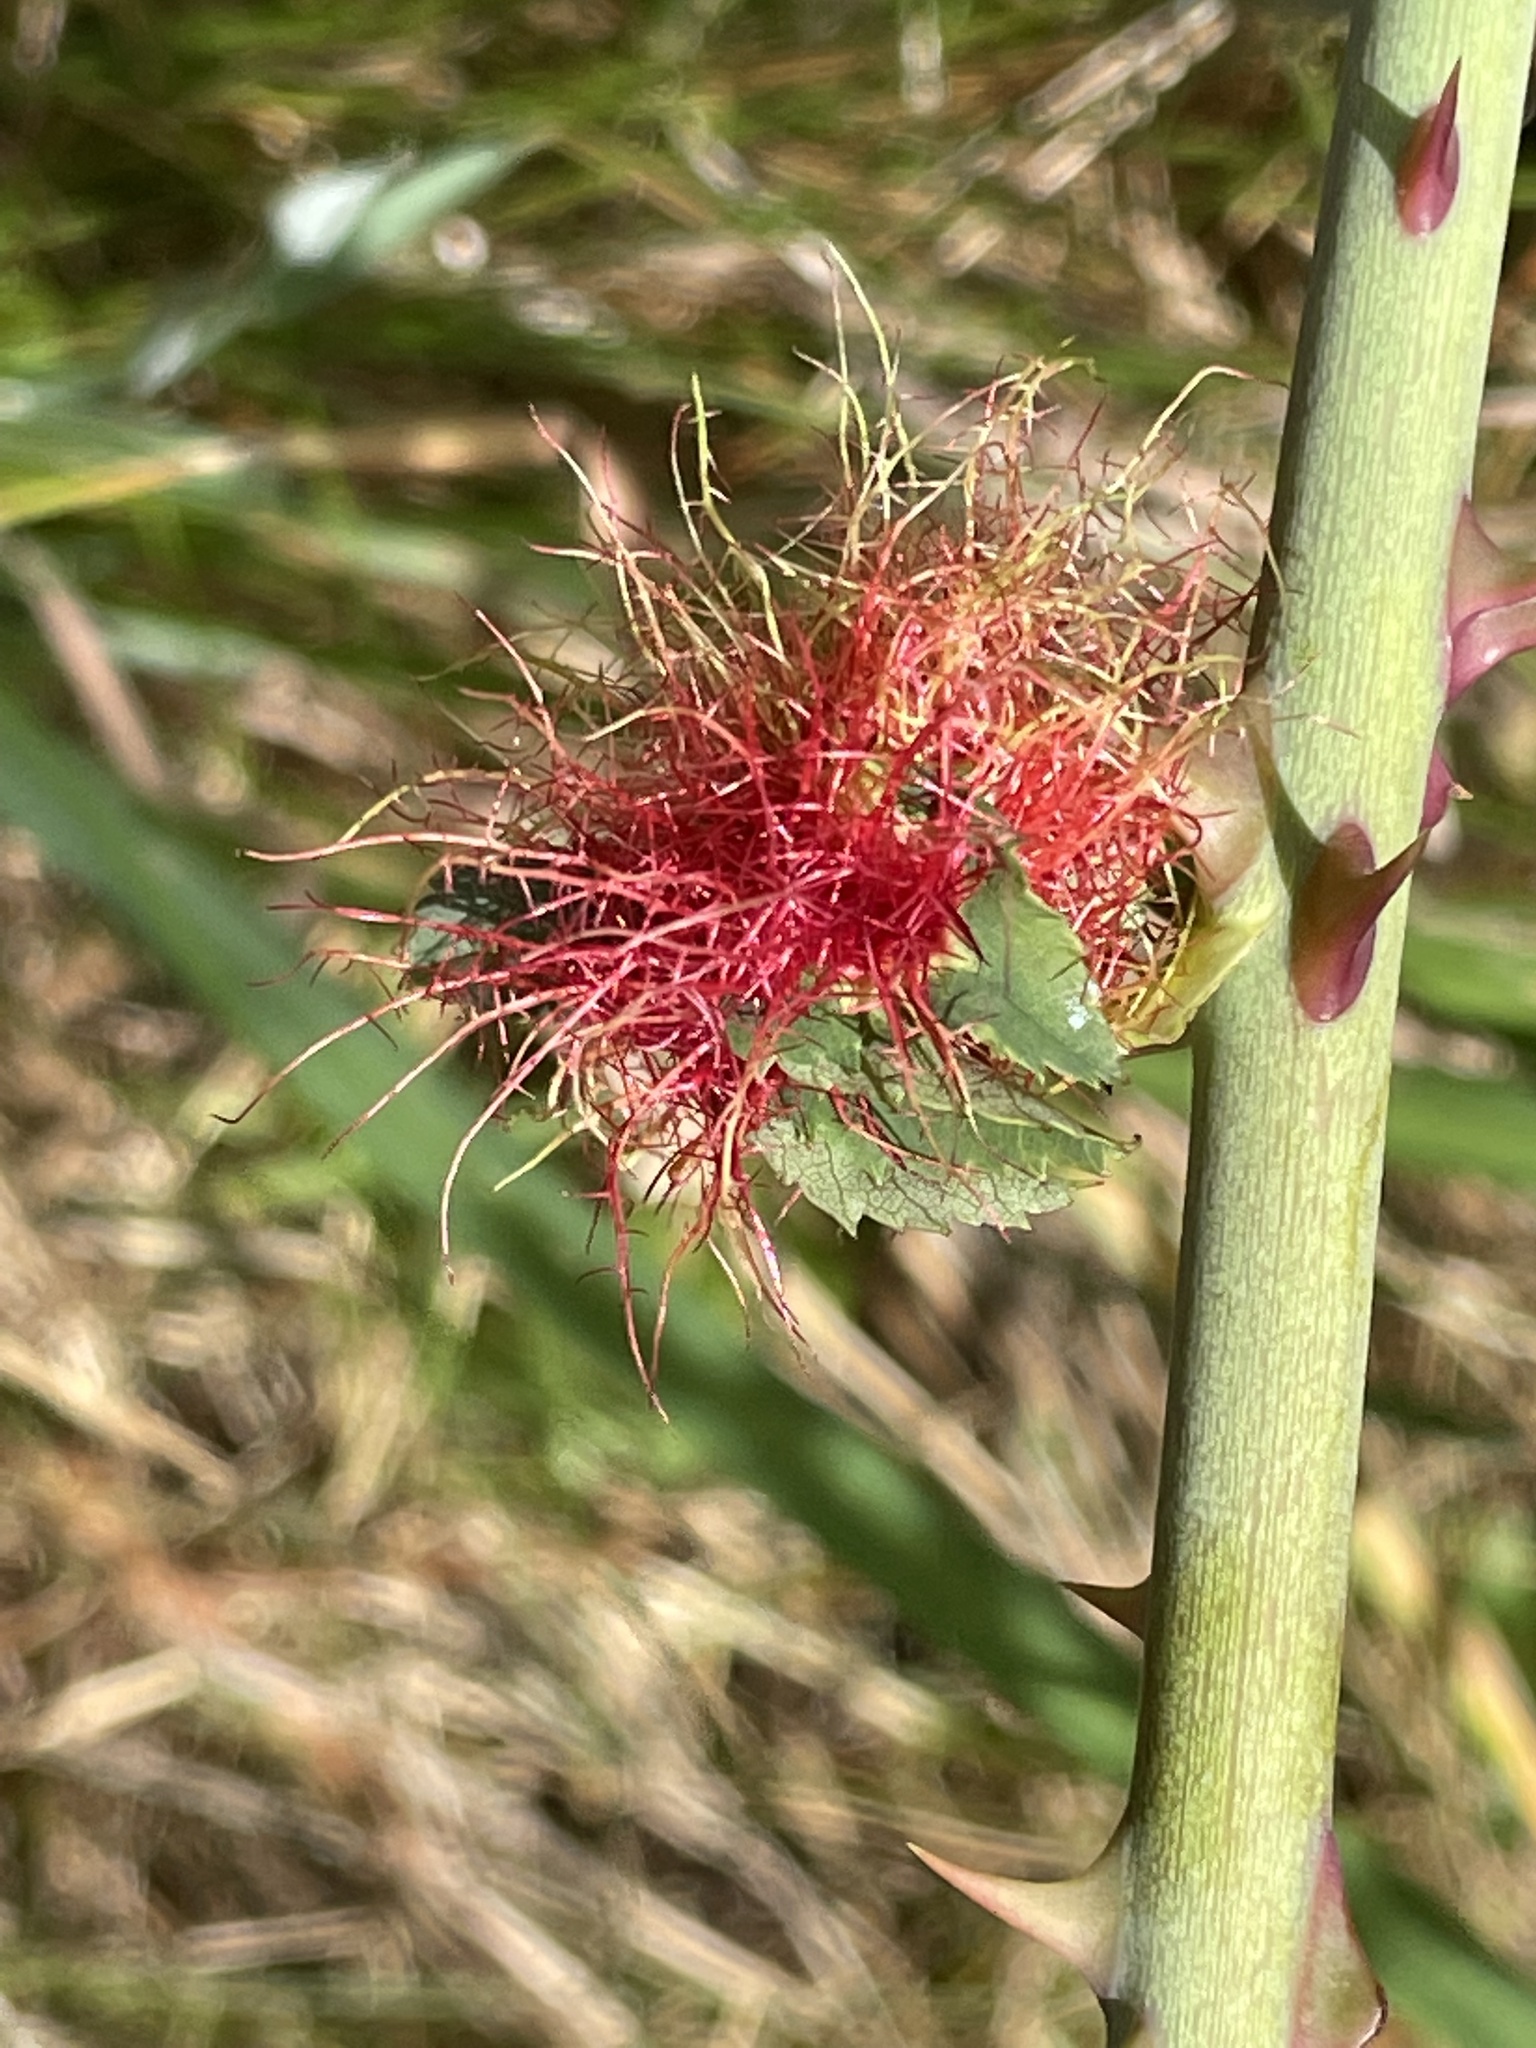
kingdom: Animalia
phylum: Arthropoda
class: Insecta
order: Hymenoptera
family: Cynipidae
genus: Diplolepis
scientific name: Diplolepis rosae
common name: Bedeguar gall
